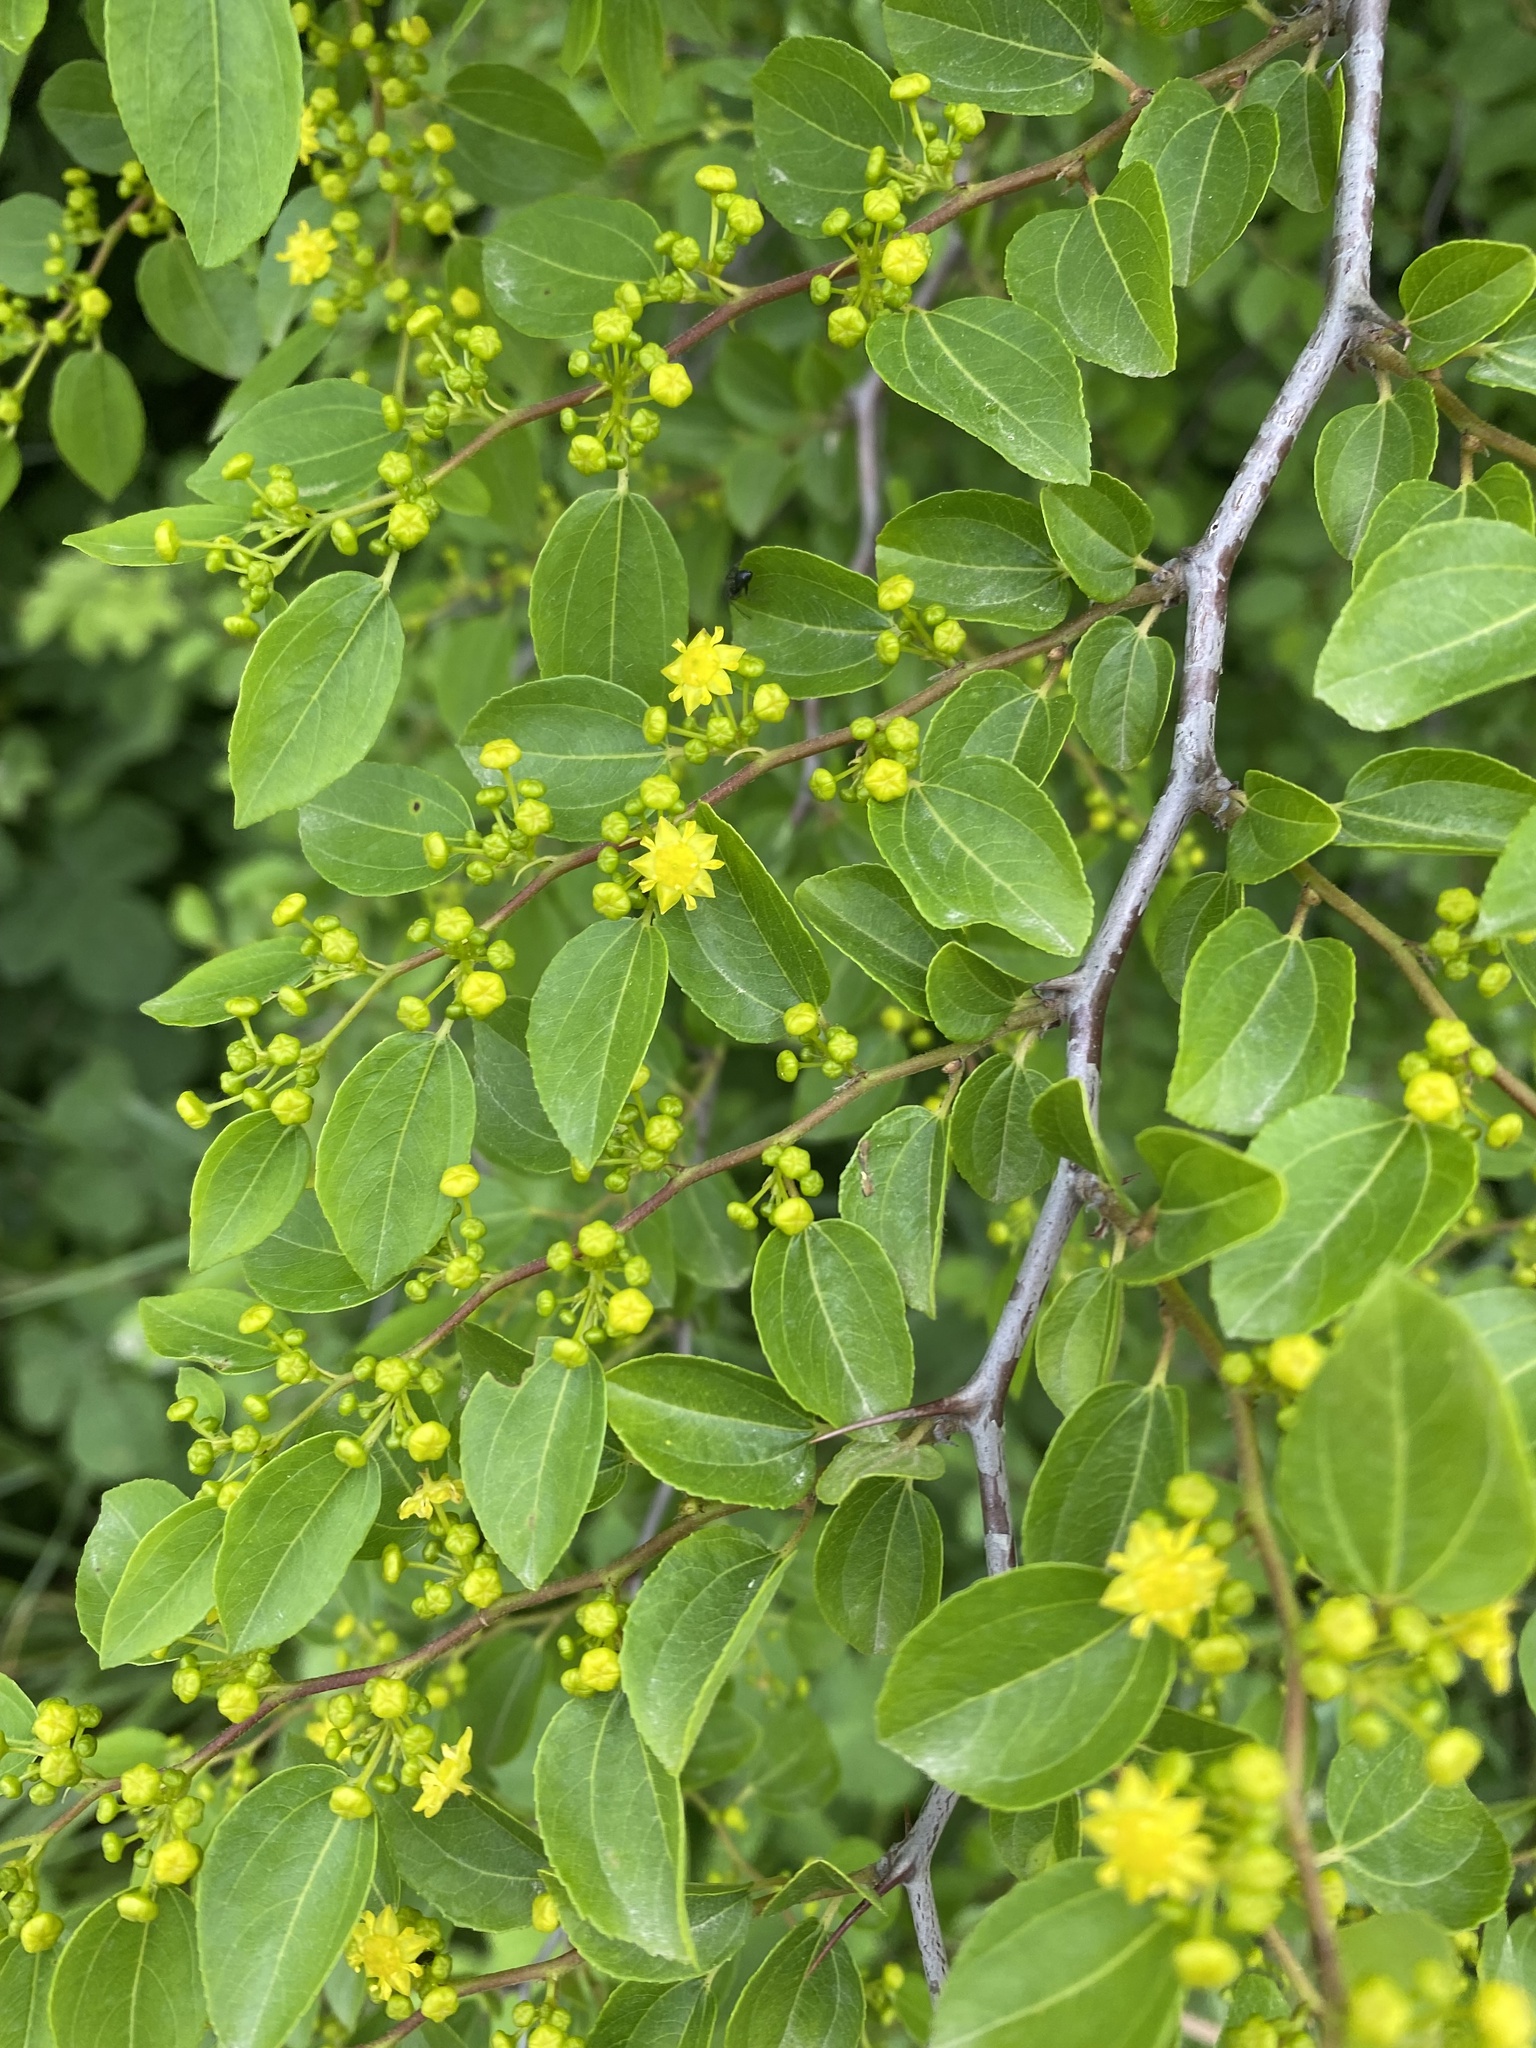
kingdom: Plantae
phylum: Tracheophyta
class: Magnoliopsida
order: Rosales
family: Rhamnaceae
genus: Paliurus
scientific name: Paliurus spina-christi
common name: Jeruselem thorn
